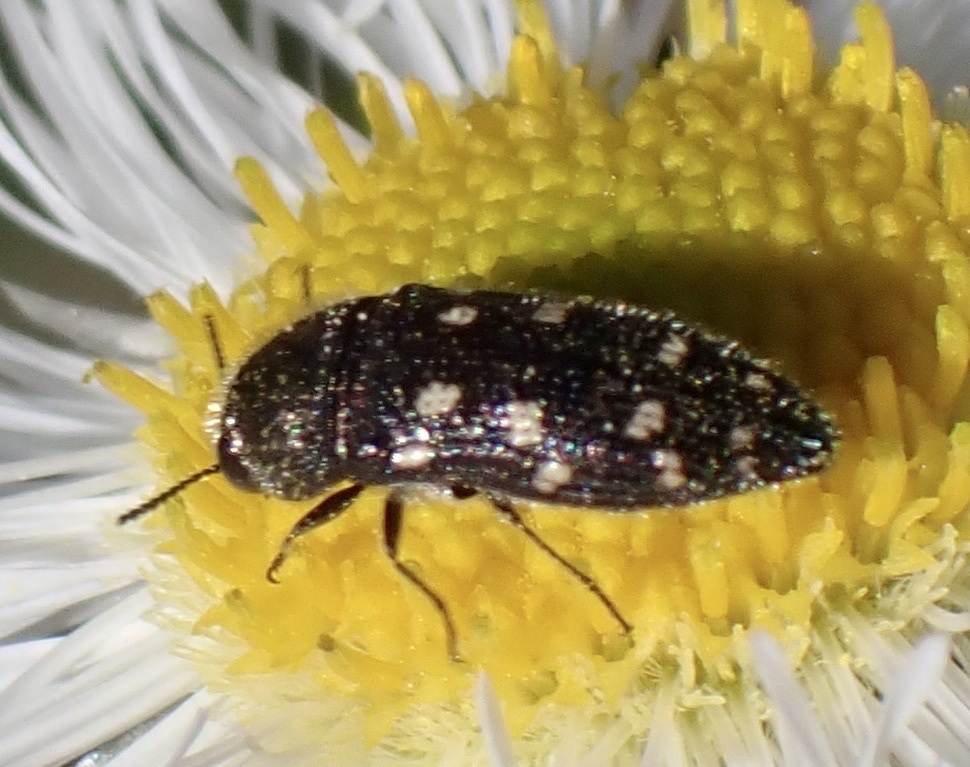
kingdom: Animalia
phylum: Arthropoda
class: Insecta
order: Coleoptera
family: Buprestidae
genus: Acmaeodera
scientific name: Acmaeodera tubulus
